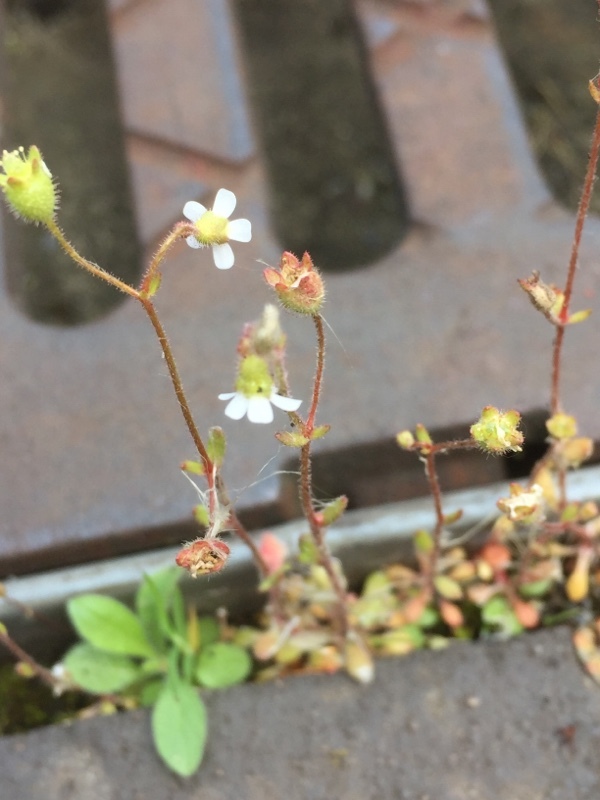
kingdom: Plantae
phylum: Tracheophyta
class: Magnoliopsida
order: Saxifragales
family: Saxifragaceae
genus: Saxifraga
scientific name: Saxifraga tridactylites
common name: Rue-leaved saxifrage
